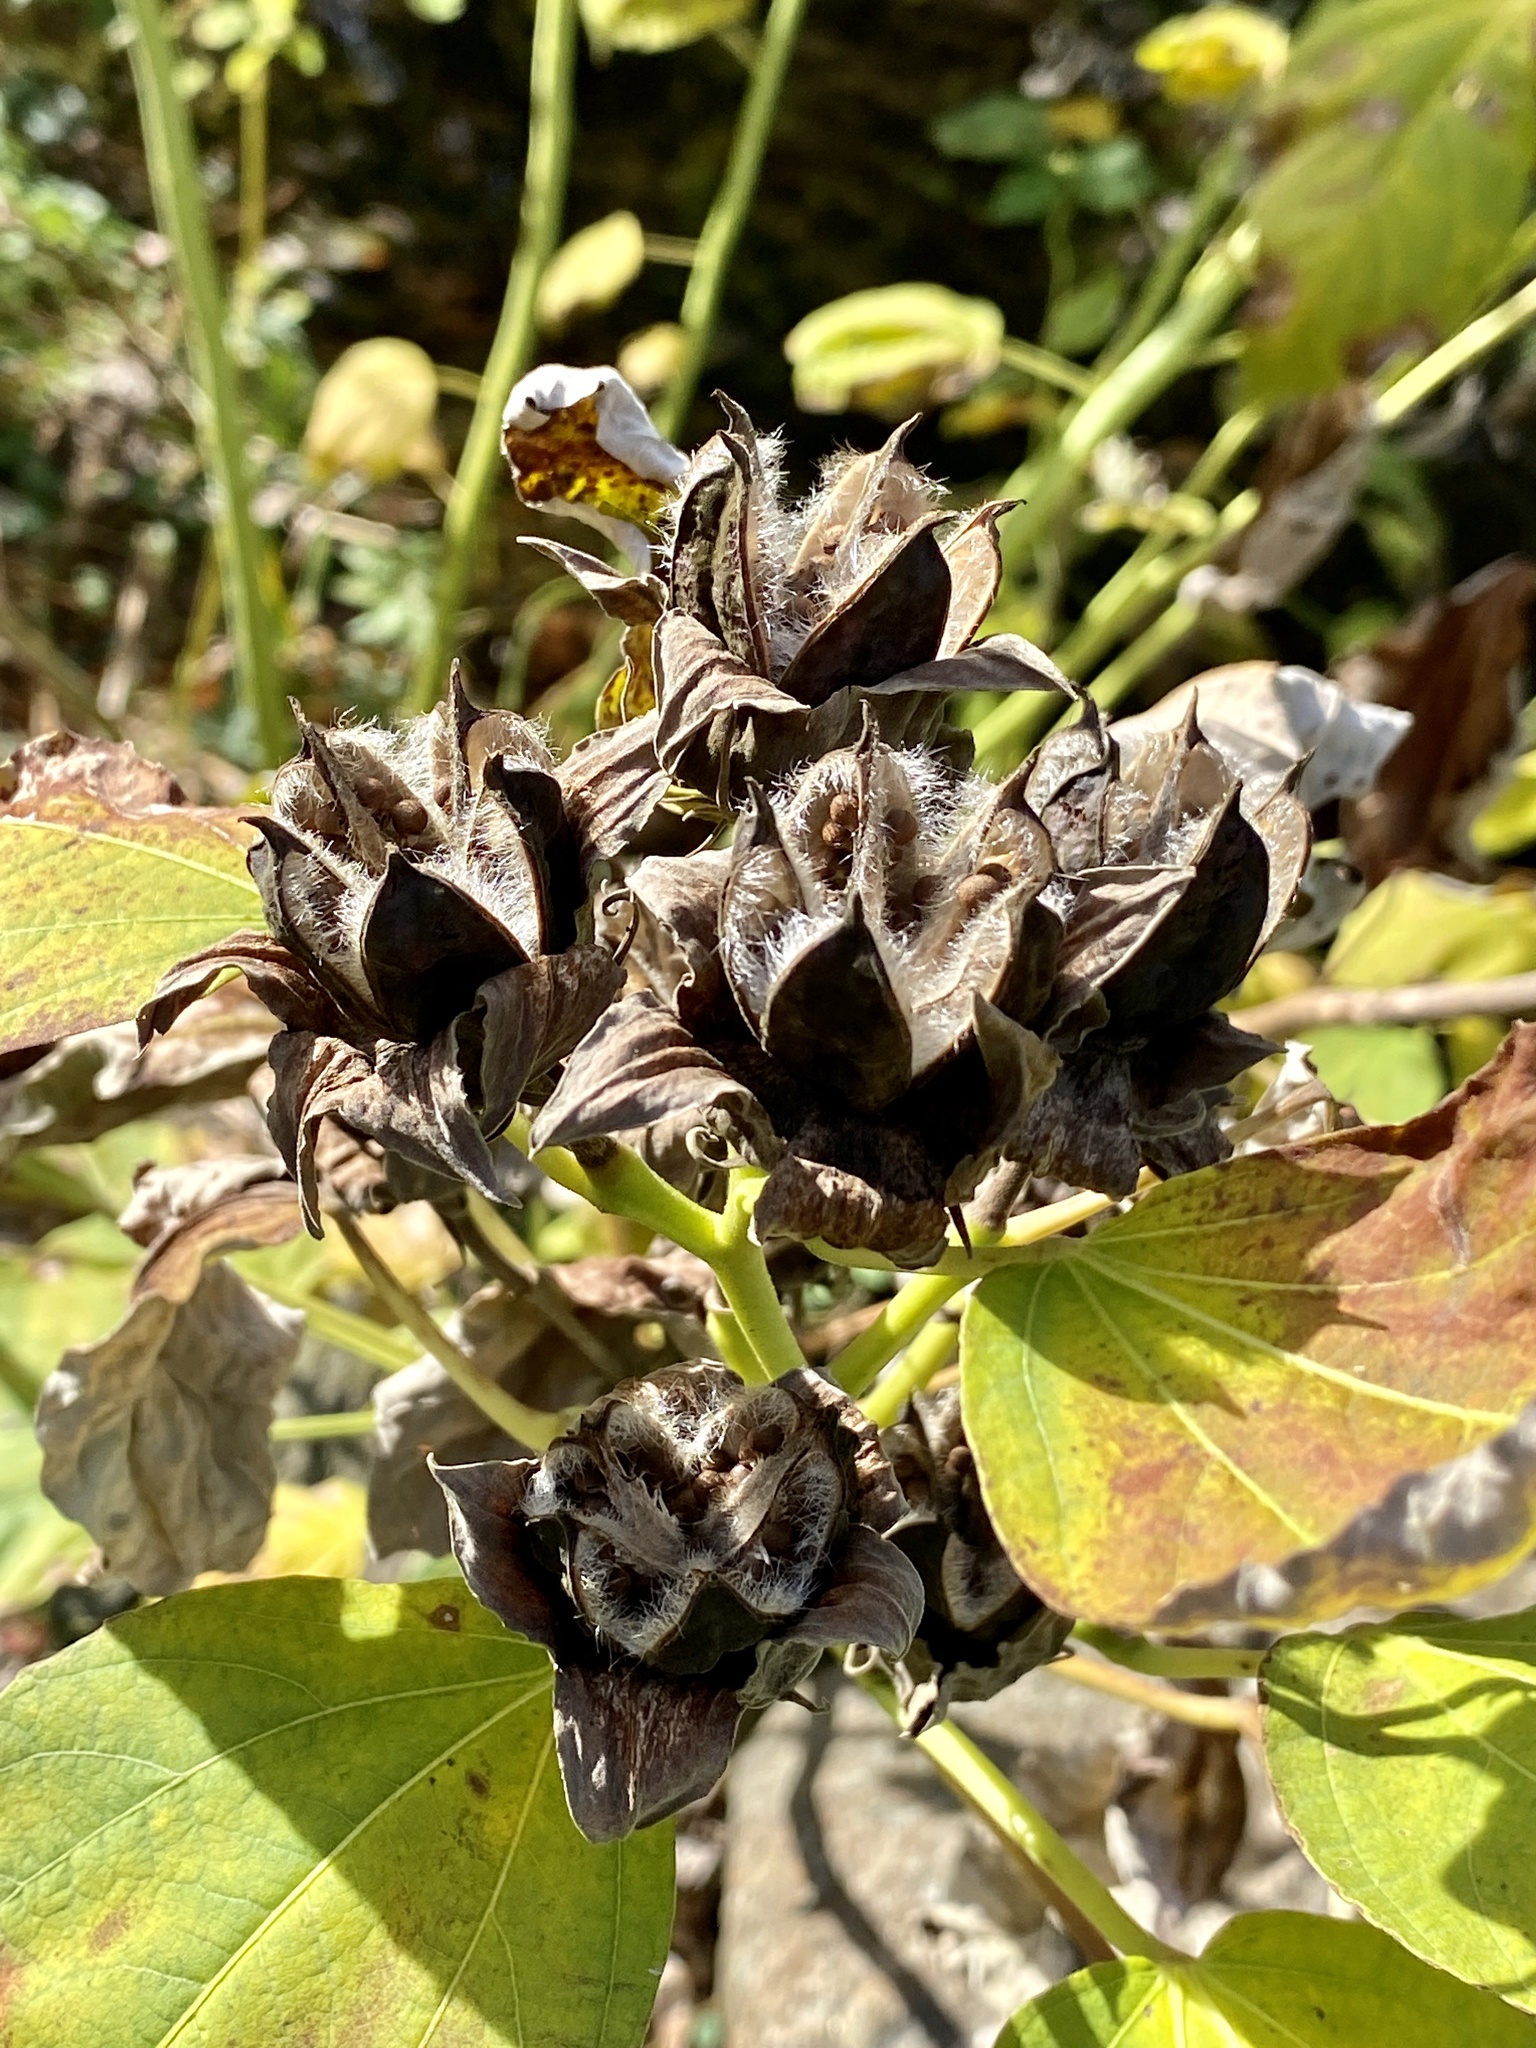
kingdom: Plantae
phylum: Tracheophyta
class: Magnoliopsida
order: Malvales
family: Malvaceae
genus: Hibiscus
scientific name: Hibiscus moscheutos
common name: Common rose-mallow
